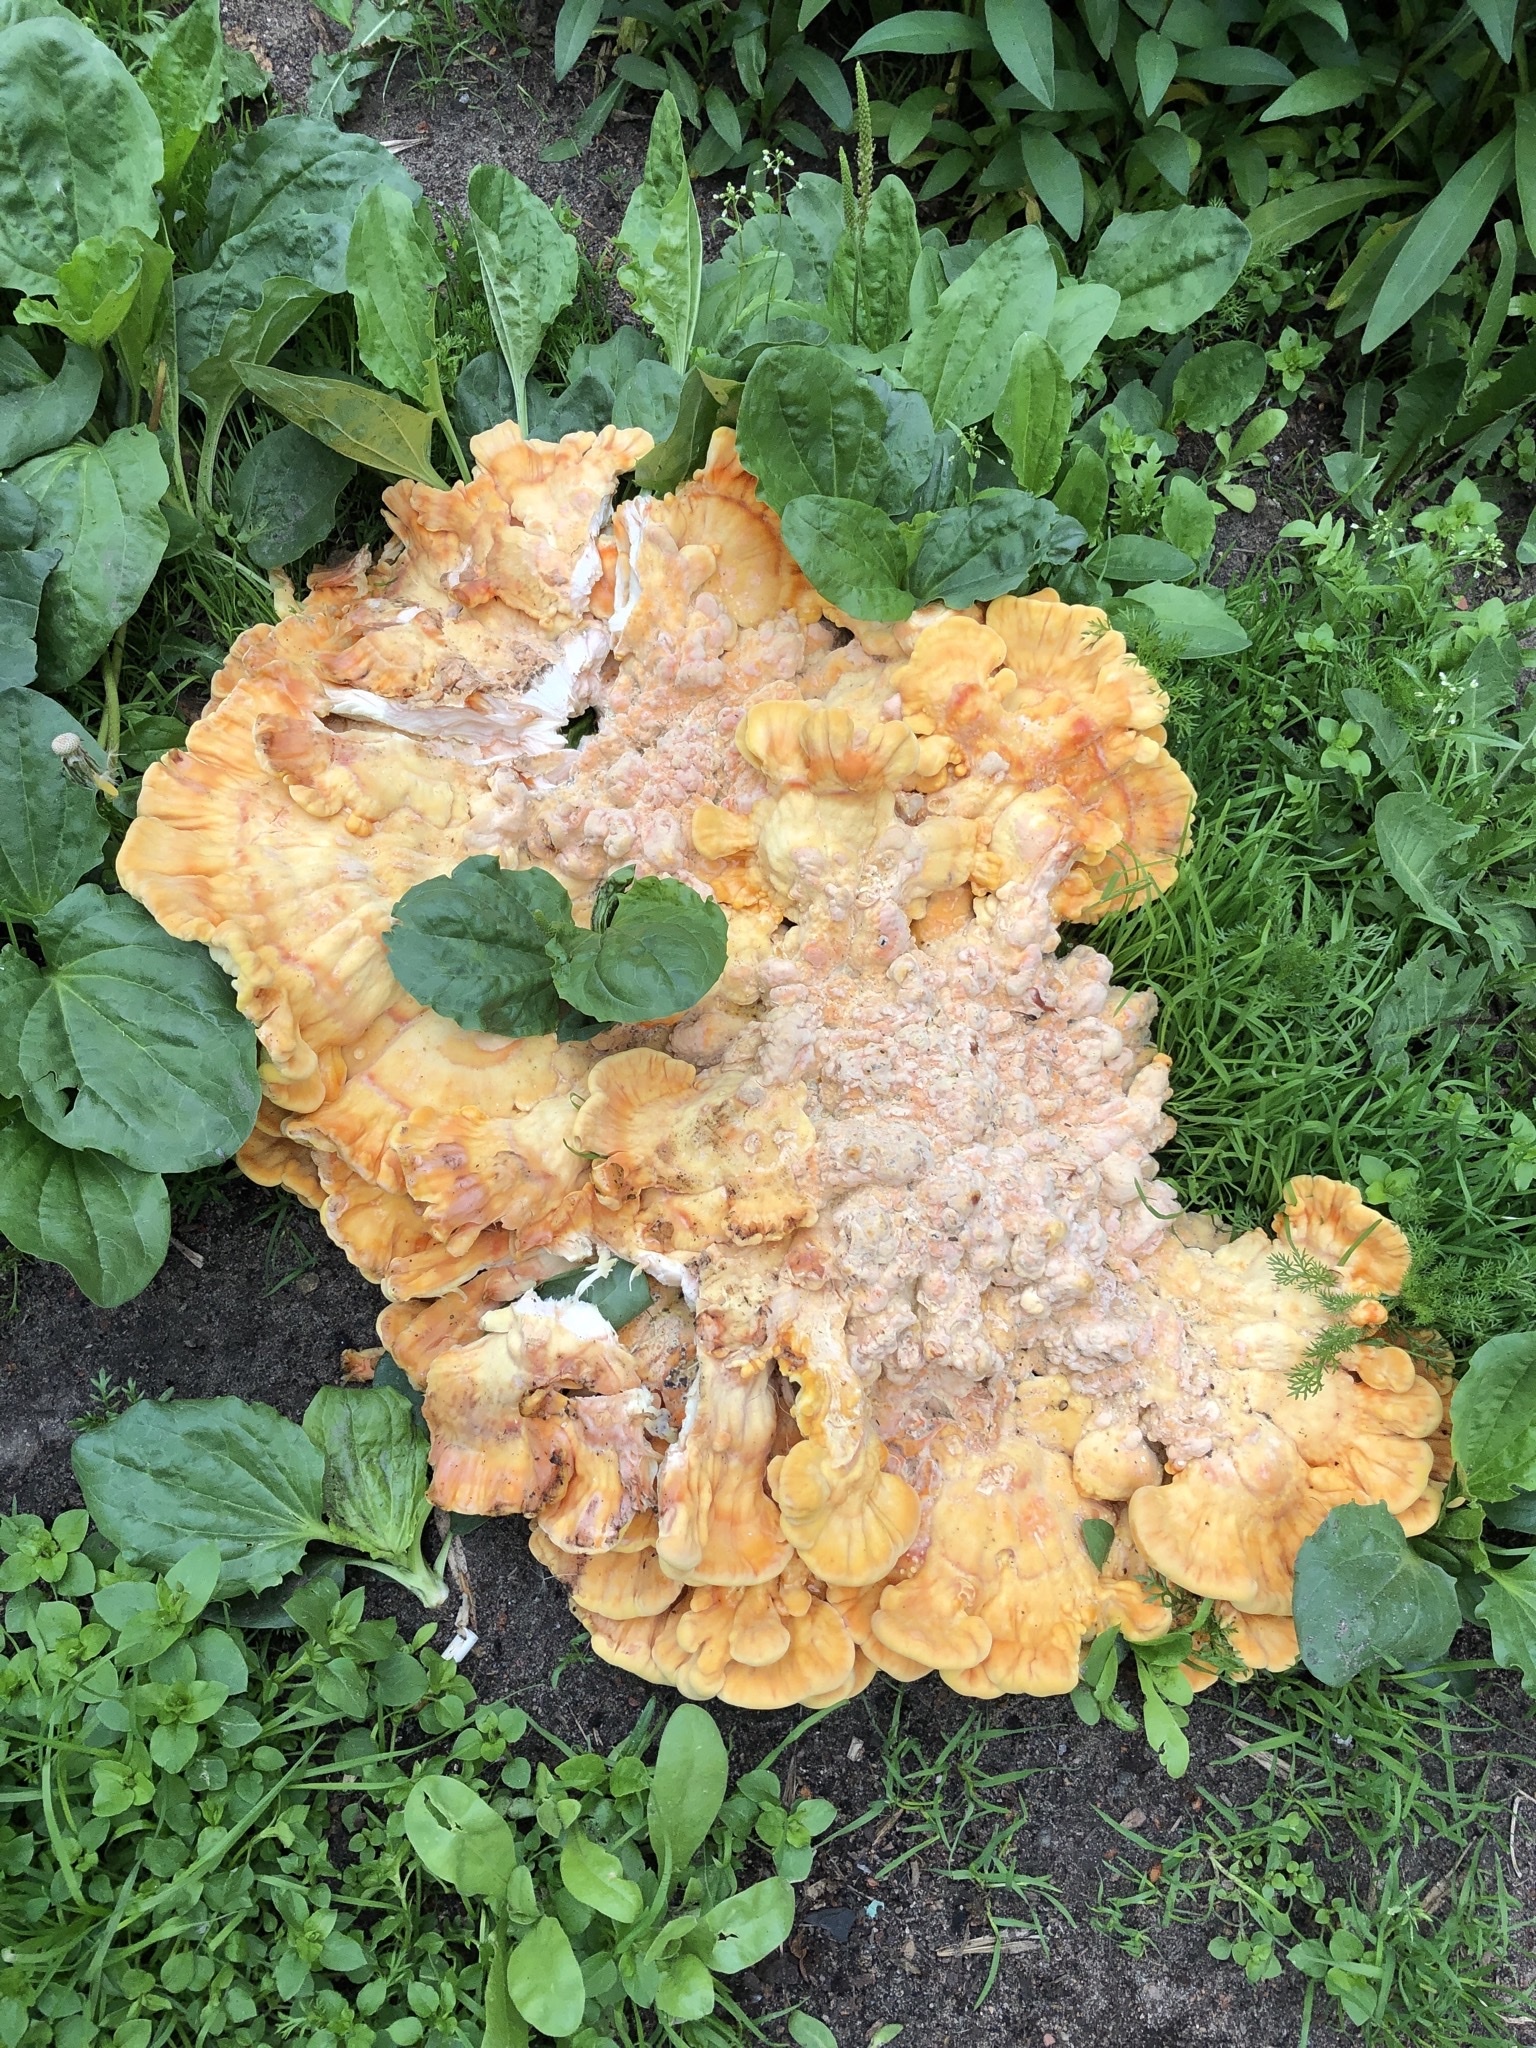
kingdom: Fungi
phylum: Basidiomycota
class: Agaricomycetes
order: Polyporales
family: Laetiporaceae
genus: Laetiporus
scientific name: Laetiporus sulphureus
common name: Chicken of the woods
